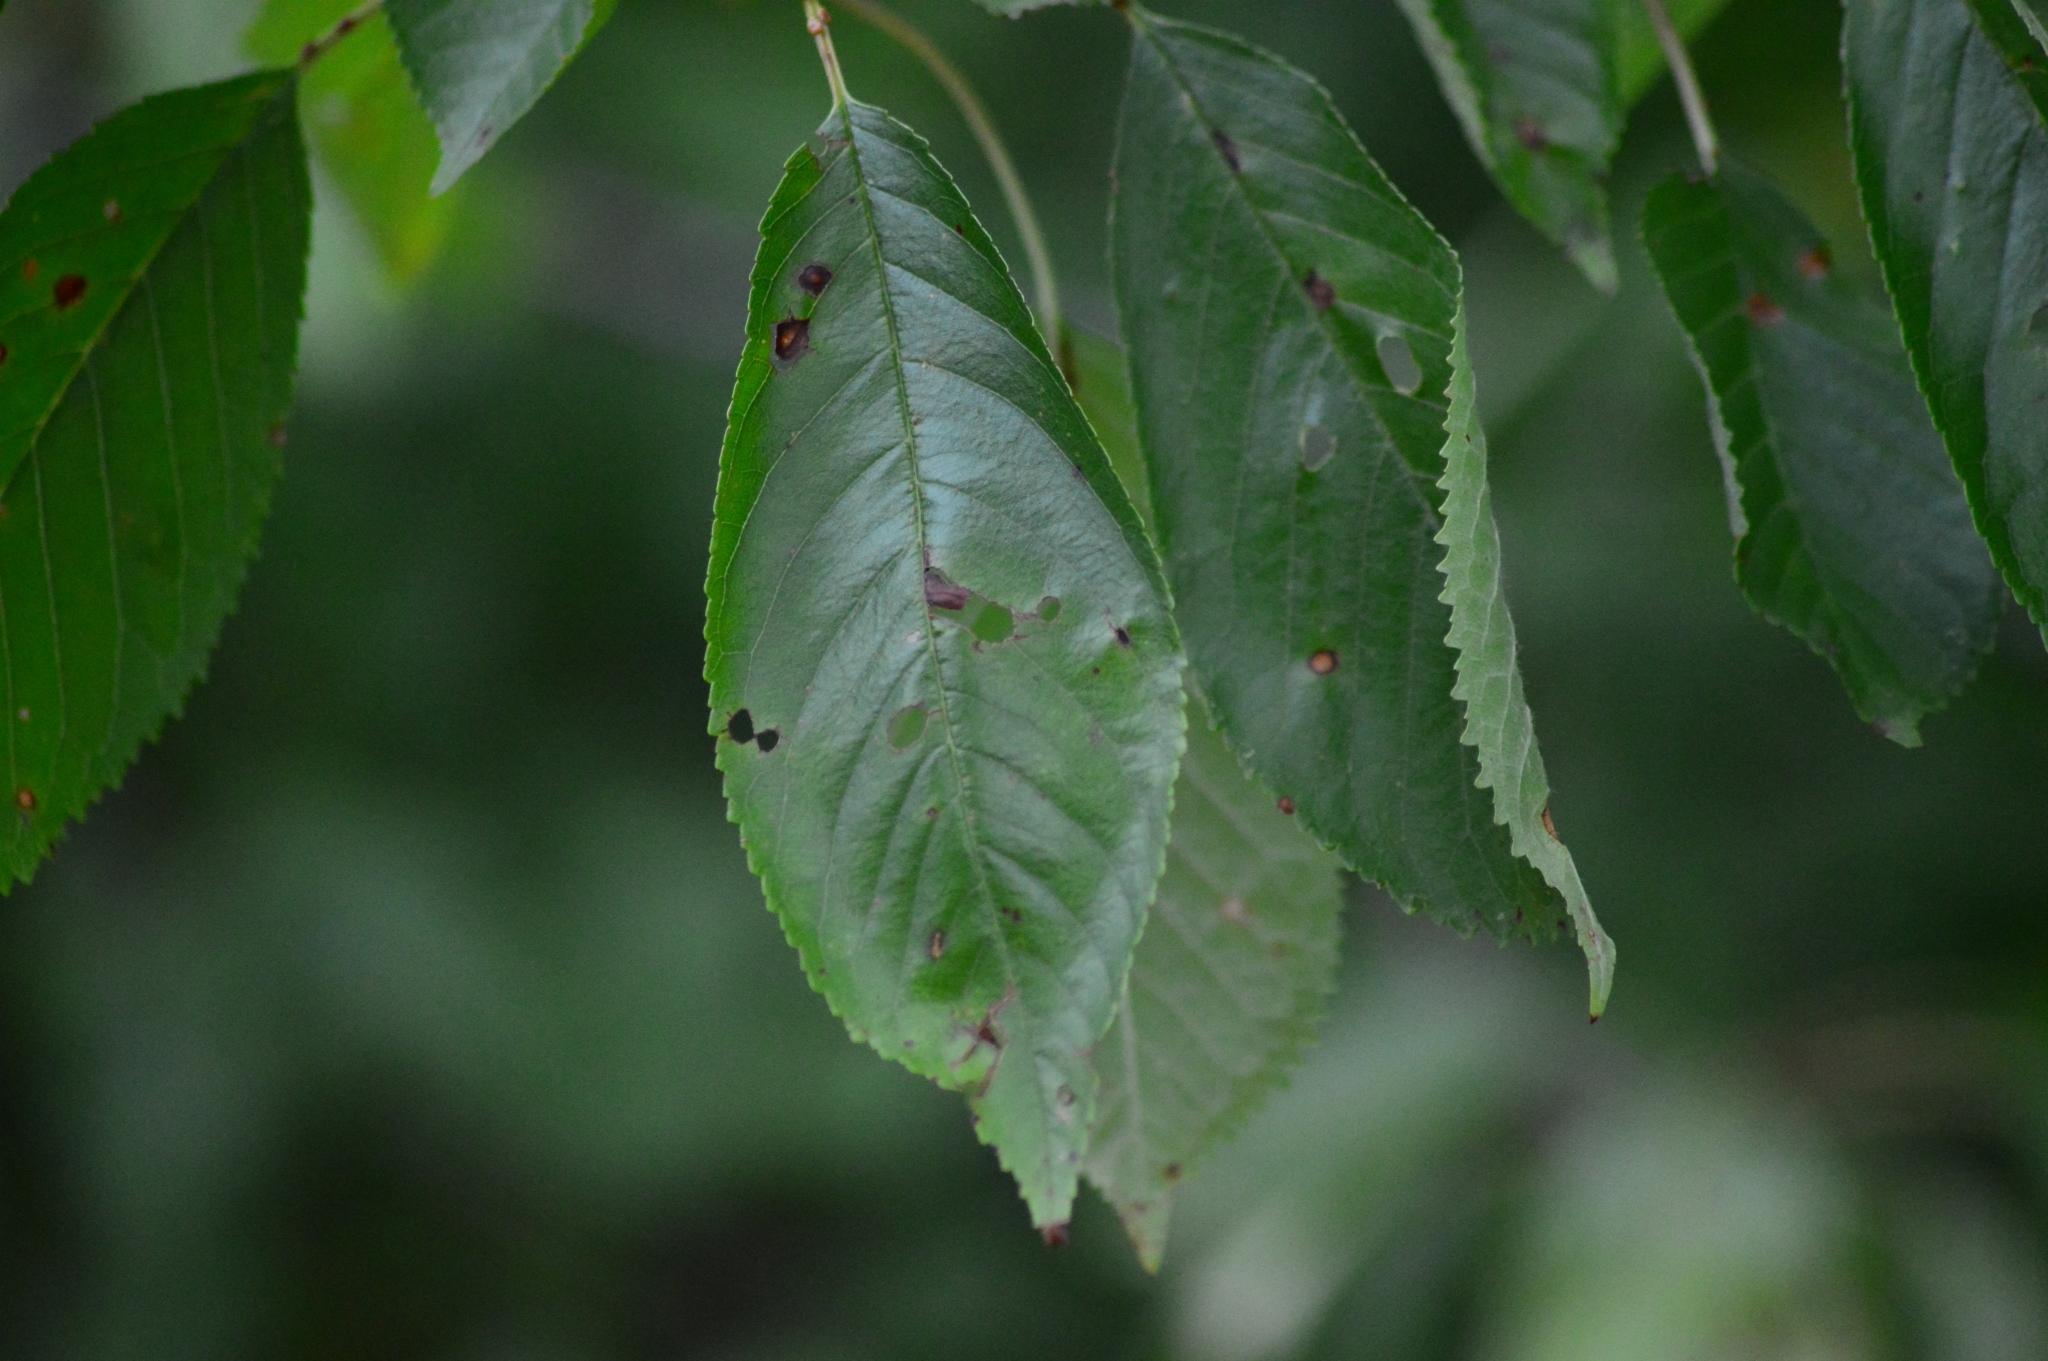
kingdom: Plantae
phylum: Tracheophyta
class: Magnoliopsida
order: Rosales
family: Rosaceae
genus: Prunus
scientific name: Prunus avium
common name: Sweet cherry
